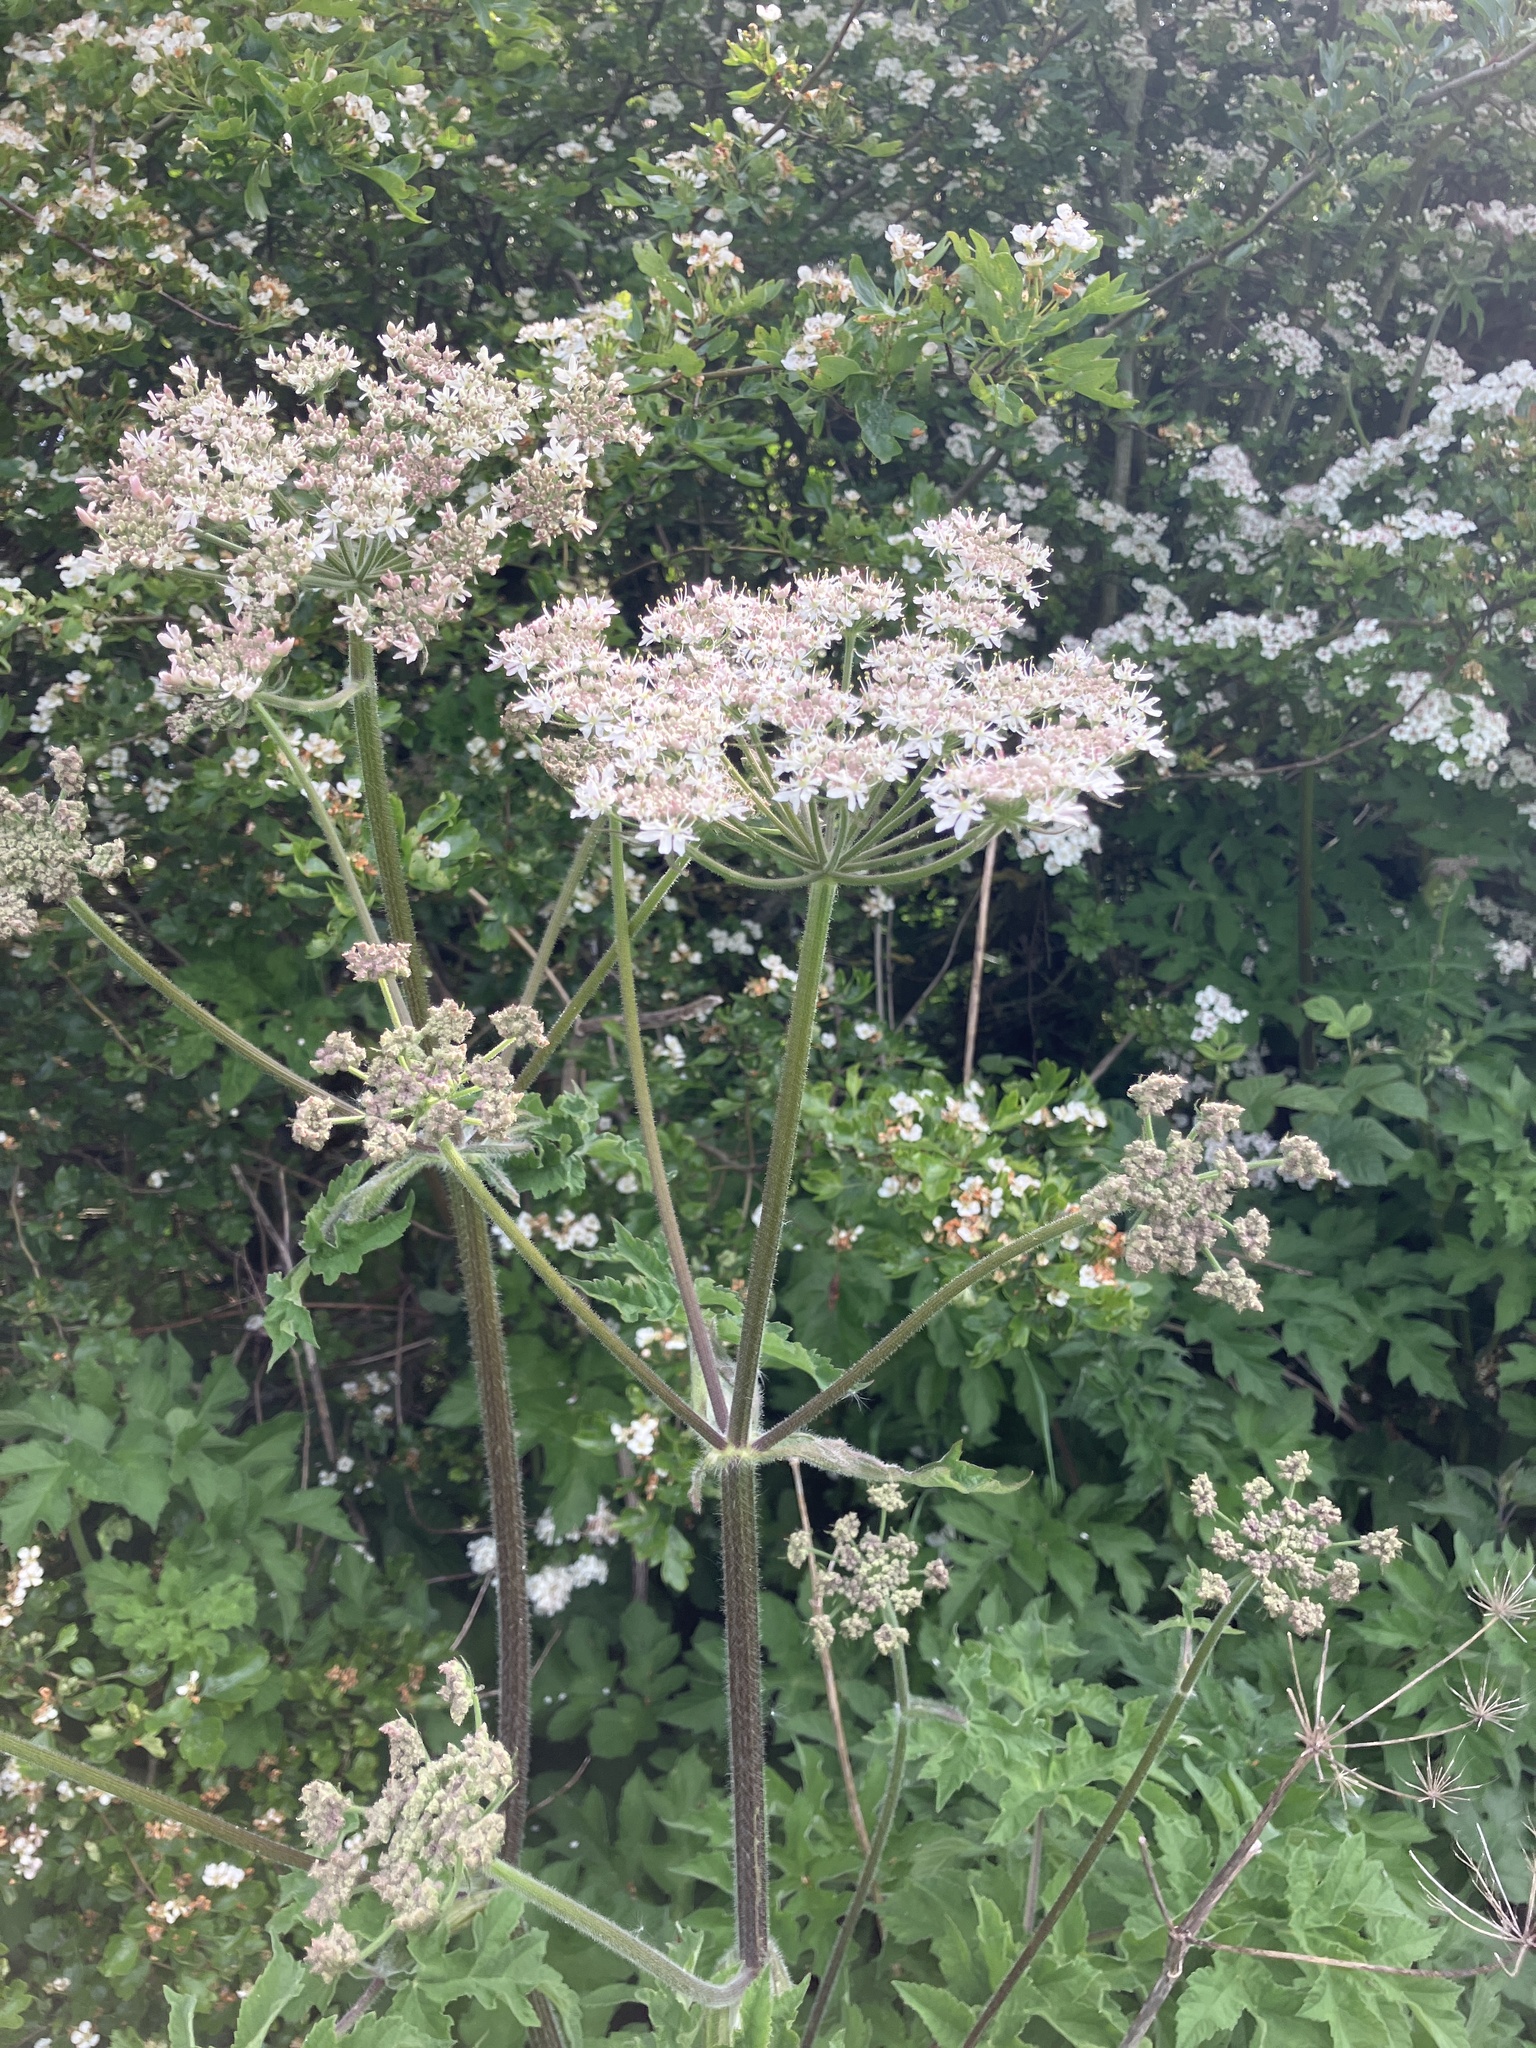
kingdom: Plantae
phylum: Tracheophyta
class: Magnoliopsida
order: Apiales
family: Apiaceae
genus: Heracleum
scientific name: Heracleum sphondylium
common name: Hogweed
